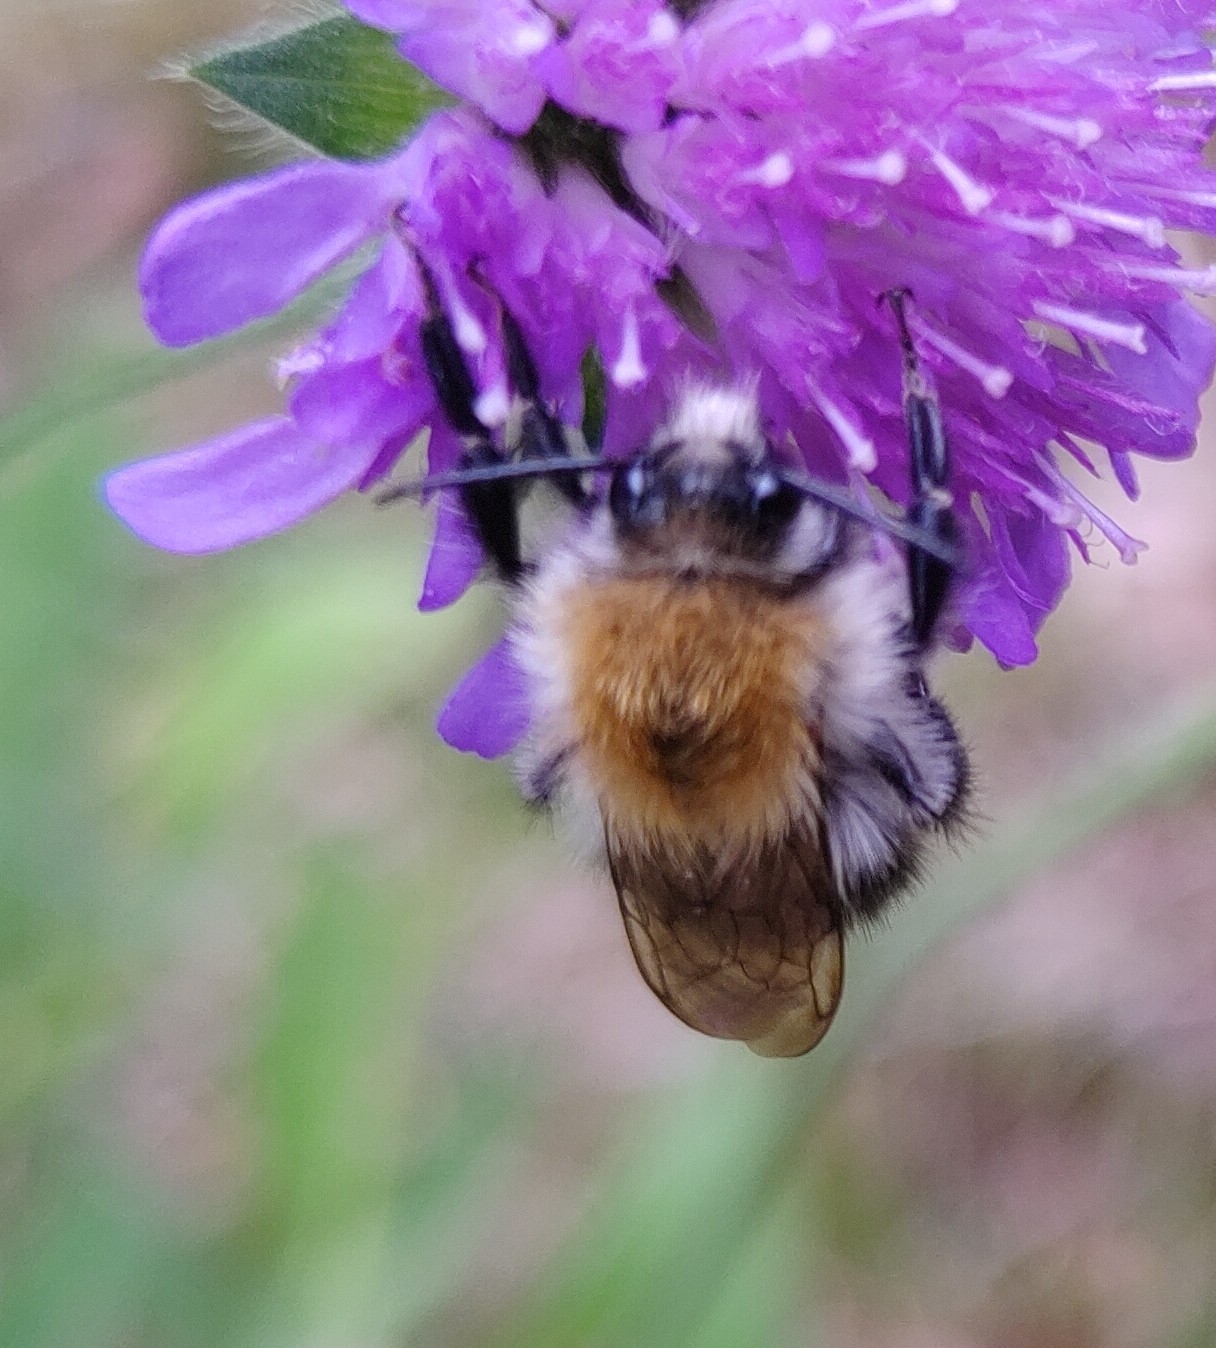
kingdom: Animalia
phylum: Arthropoda
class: Insecta
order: Hymenoptera
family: Apidae
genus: Bombus
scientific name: Bombus pascuorum
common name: Common carder bee
